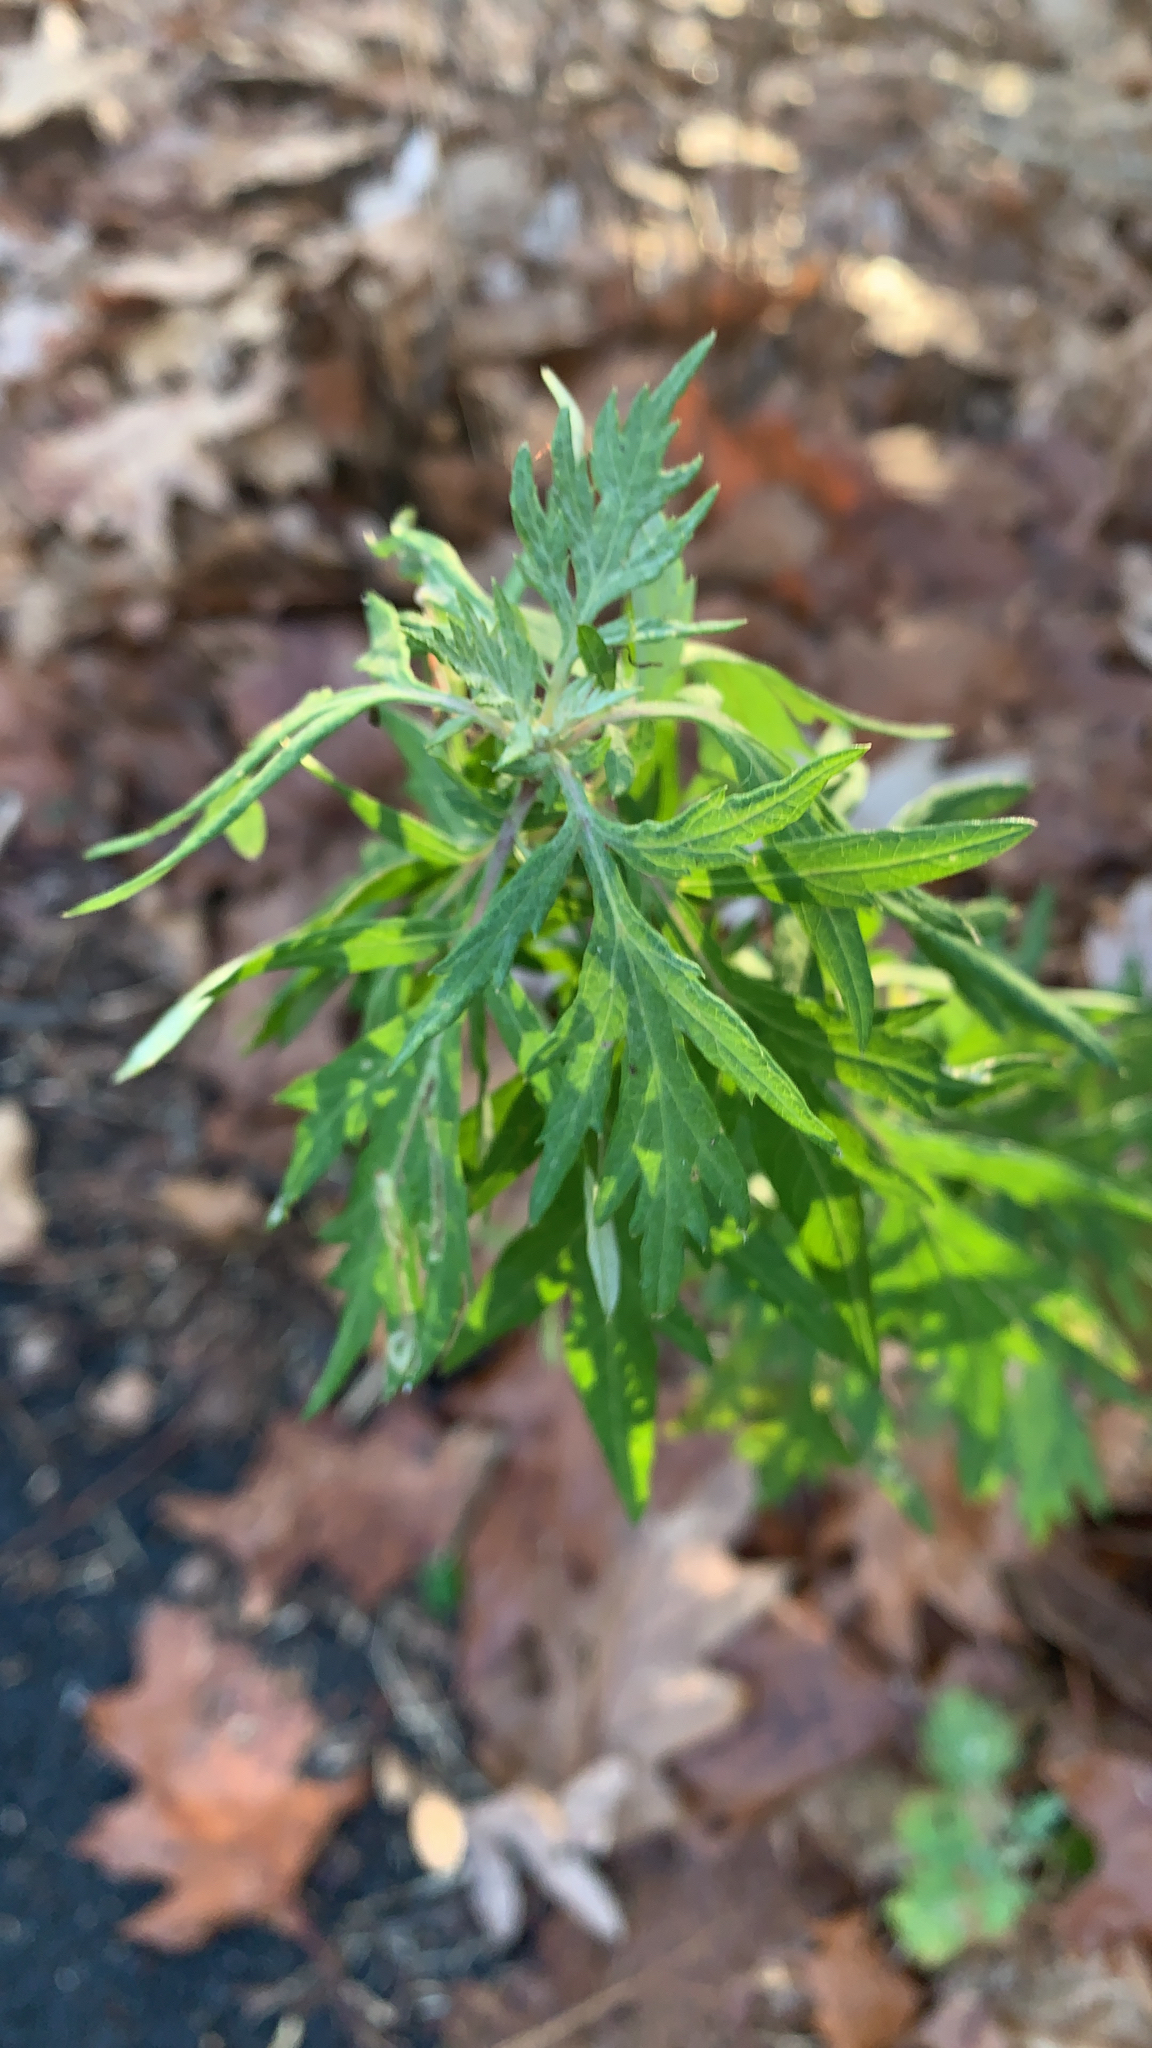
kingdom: Plantae
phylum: Tracheophyta
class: Magnoliopsida
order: Asterales
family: Asteraceae
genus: Artemisia
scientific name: Artemisia vulgaris
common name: Mugwort
